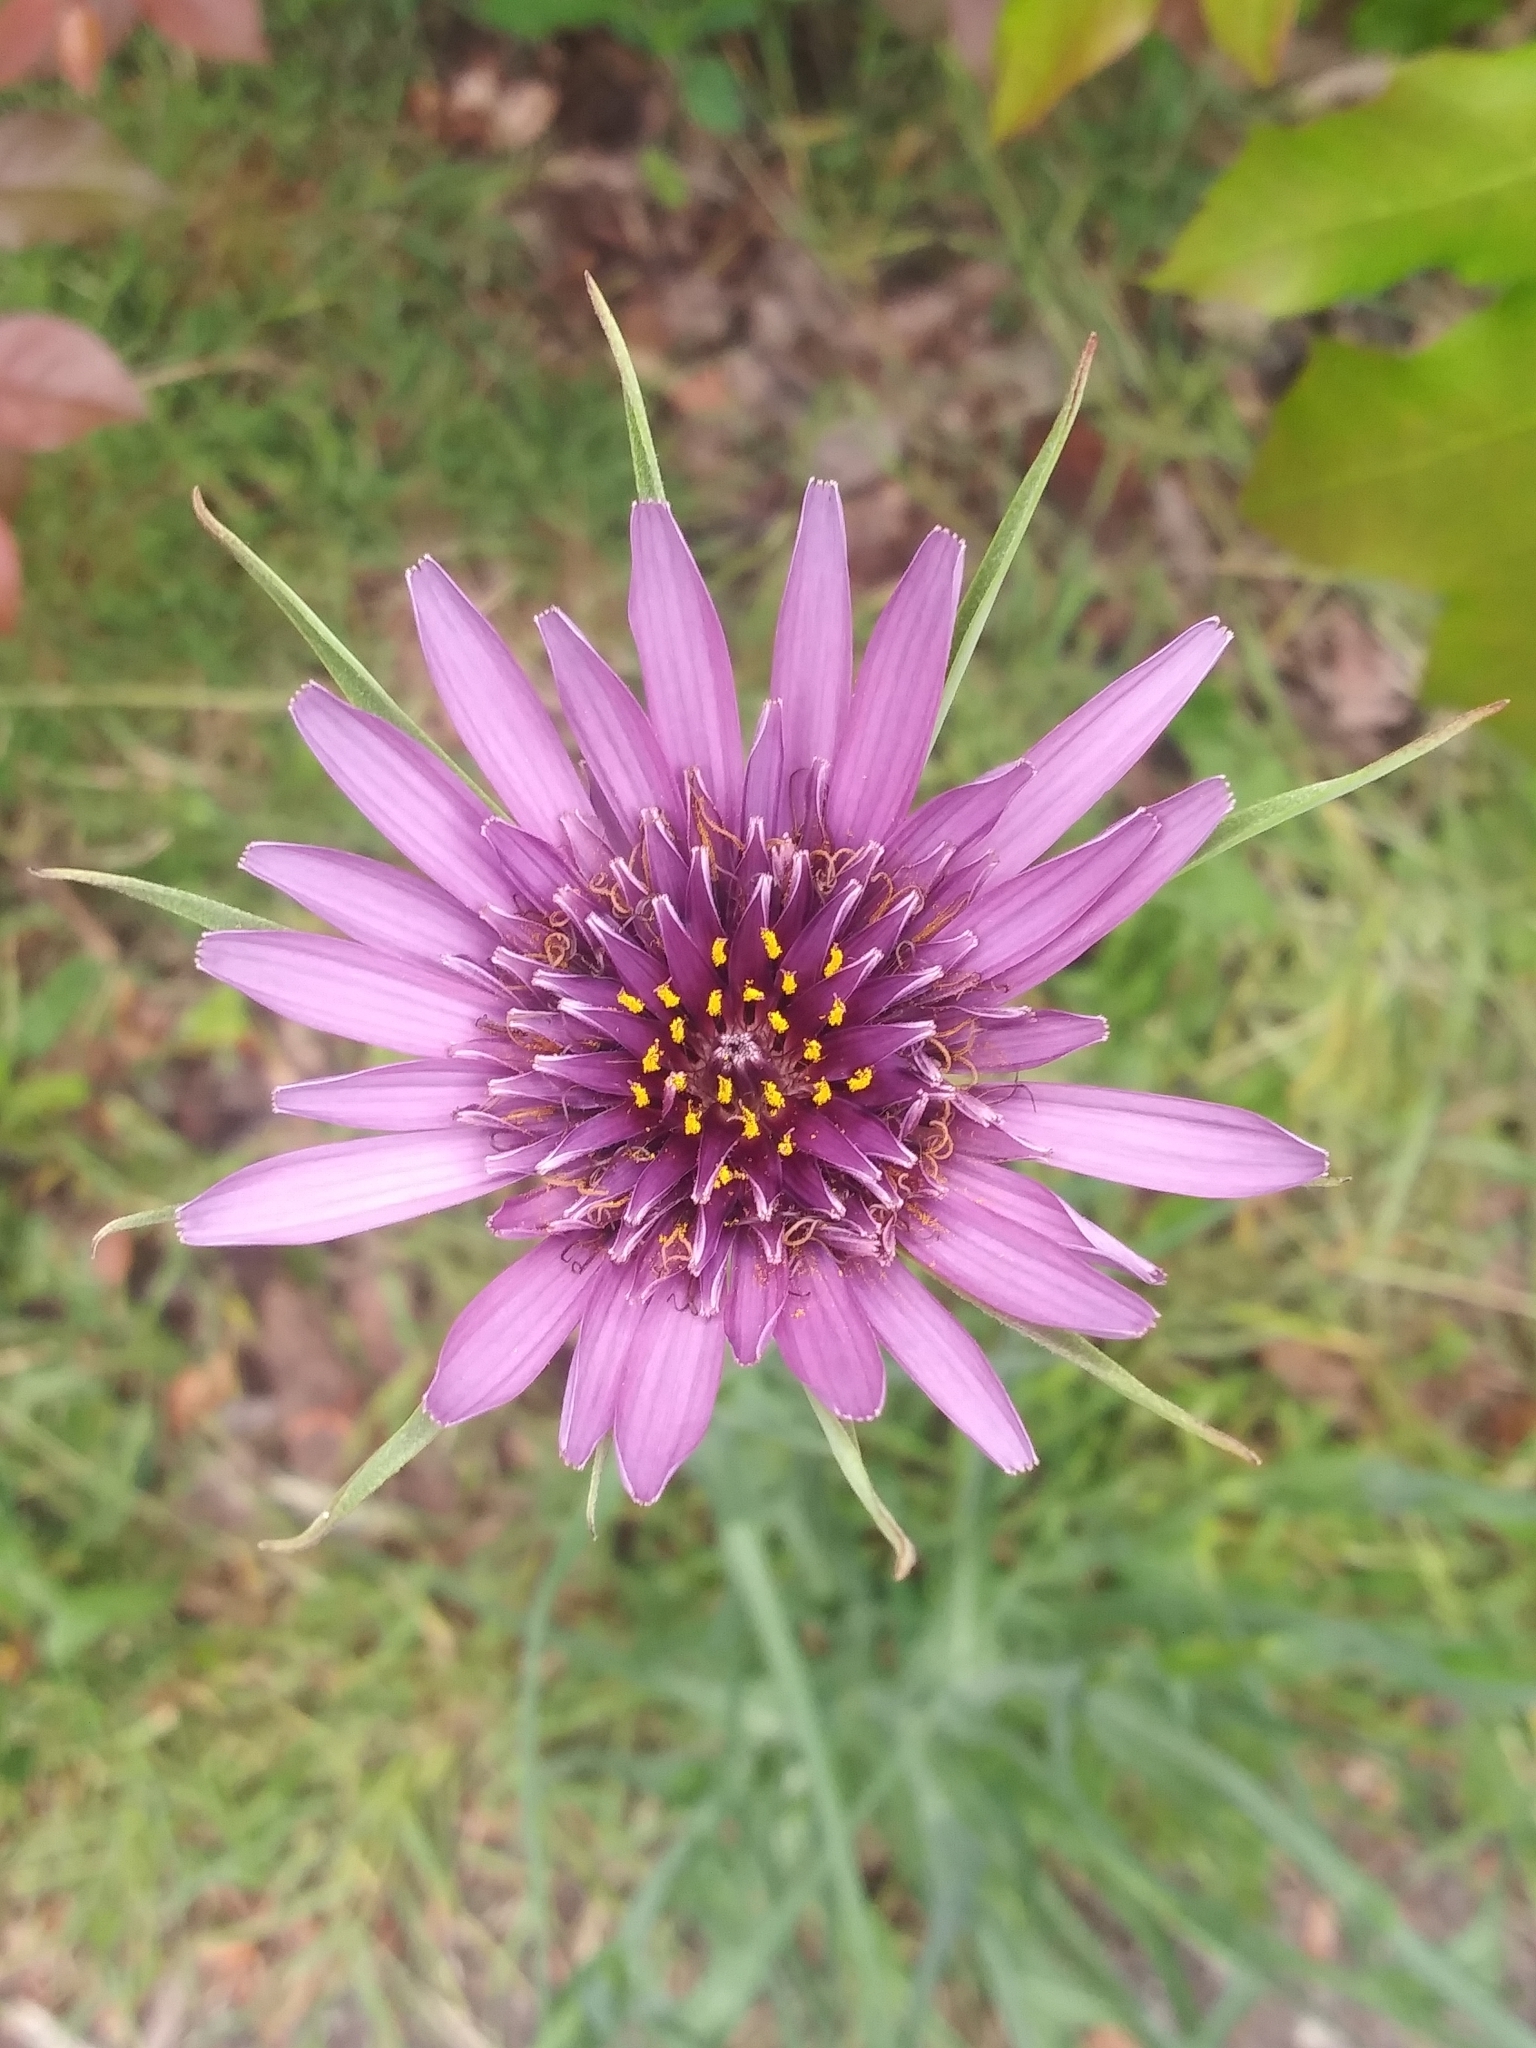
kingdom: Plantae
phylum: Tracheophyta
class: Magnoliopsida
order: Asterales
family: Asteraceae
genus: Tragopogon
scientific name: Tragopogon porrifolius
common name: Salsify
